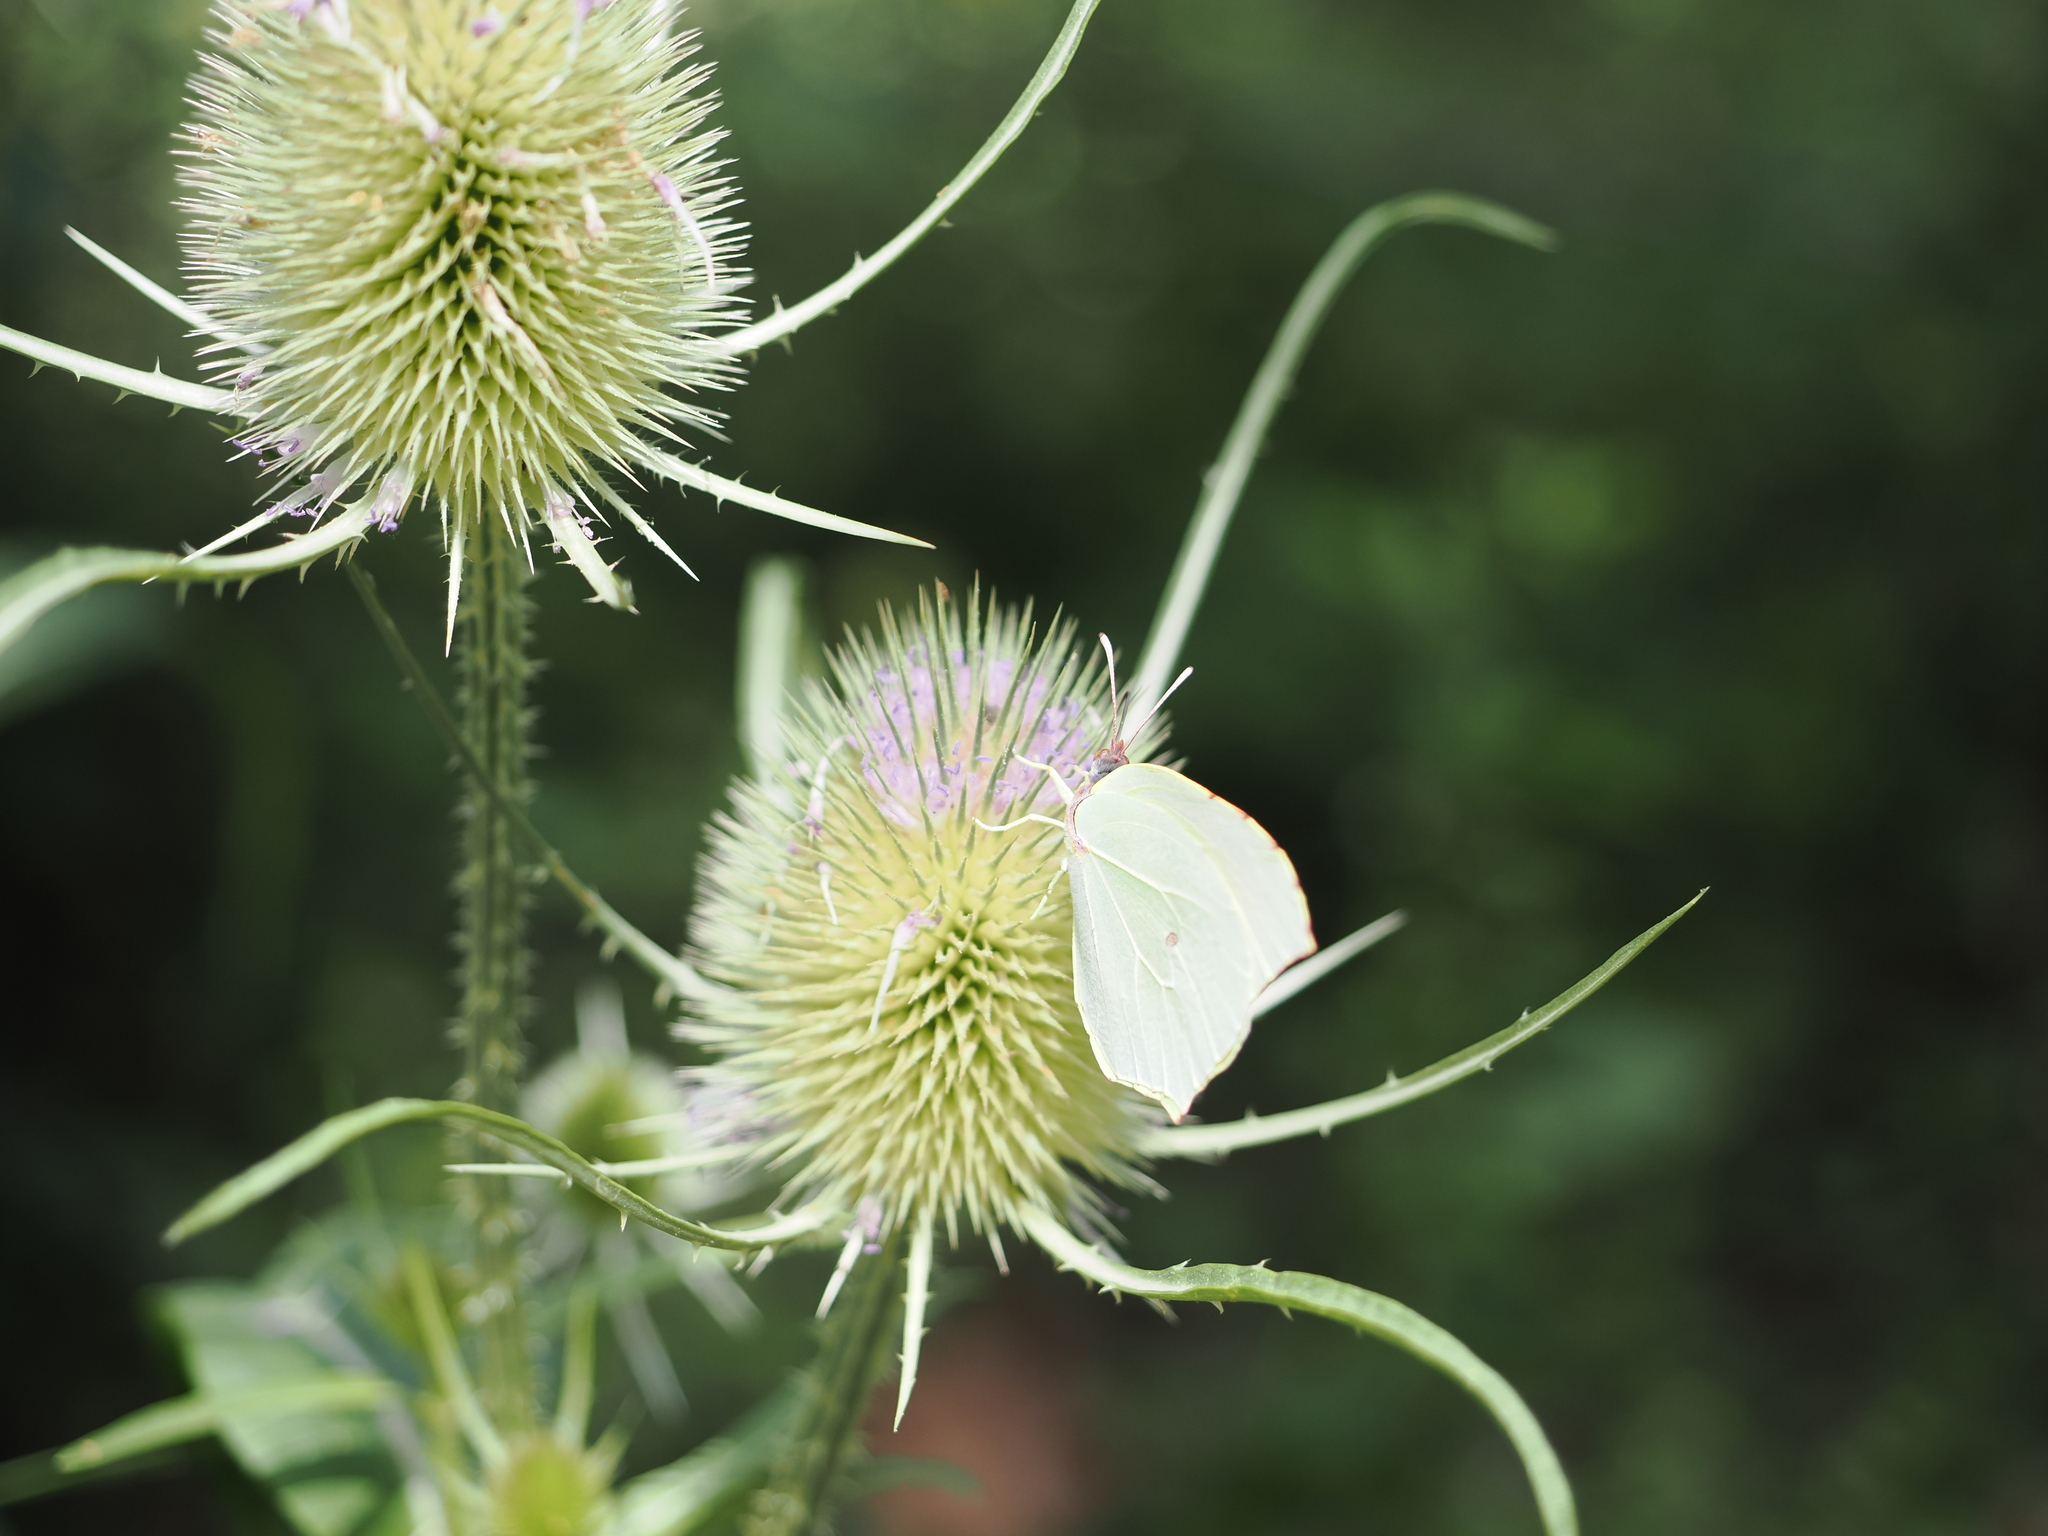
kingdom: Animalia
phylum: Arthropoda
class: Insecta
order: Lepidoptera
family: Pieridae
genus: Gonepteryx
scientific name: Gonepteryx cleopatra
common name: Cleopatra
